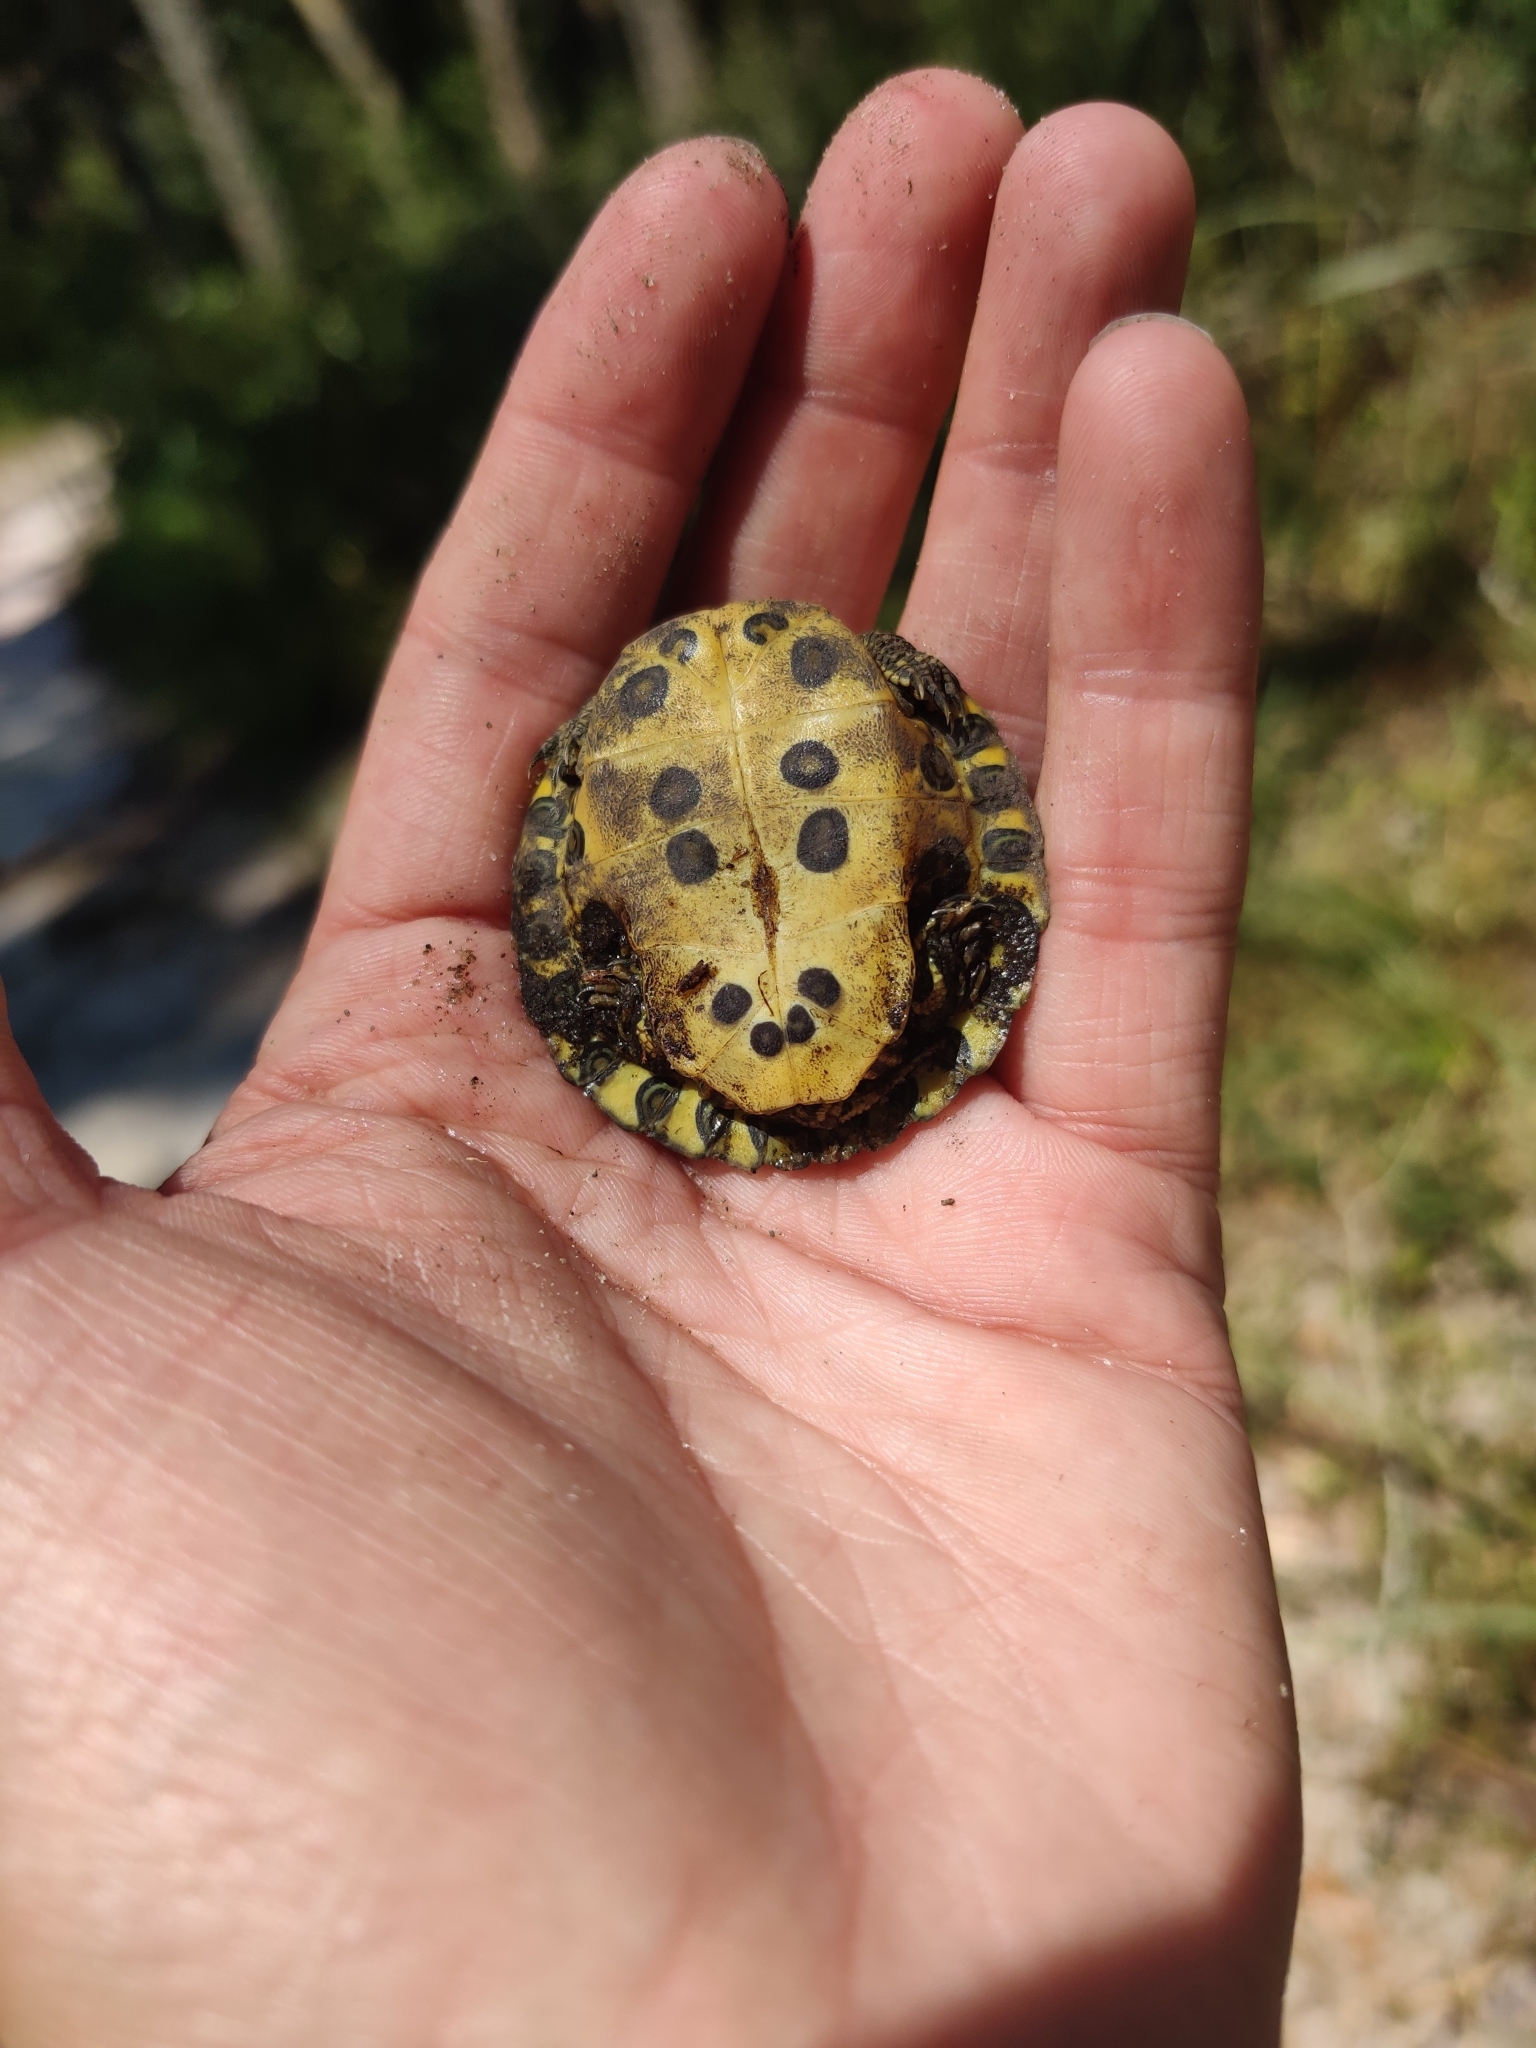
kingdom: Animalia
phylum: Chordata
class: Testudines
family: Emydidae
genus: Trachemys
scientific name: Trachemys scripta
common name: Slider
